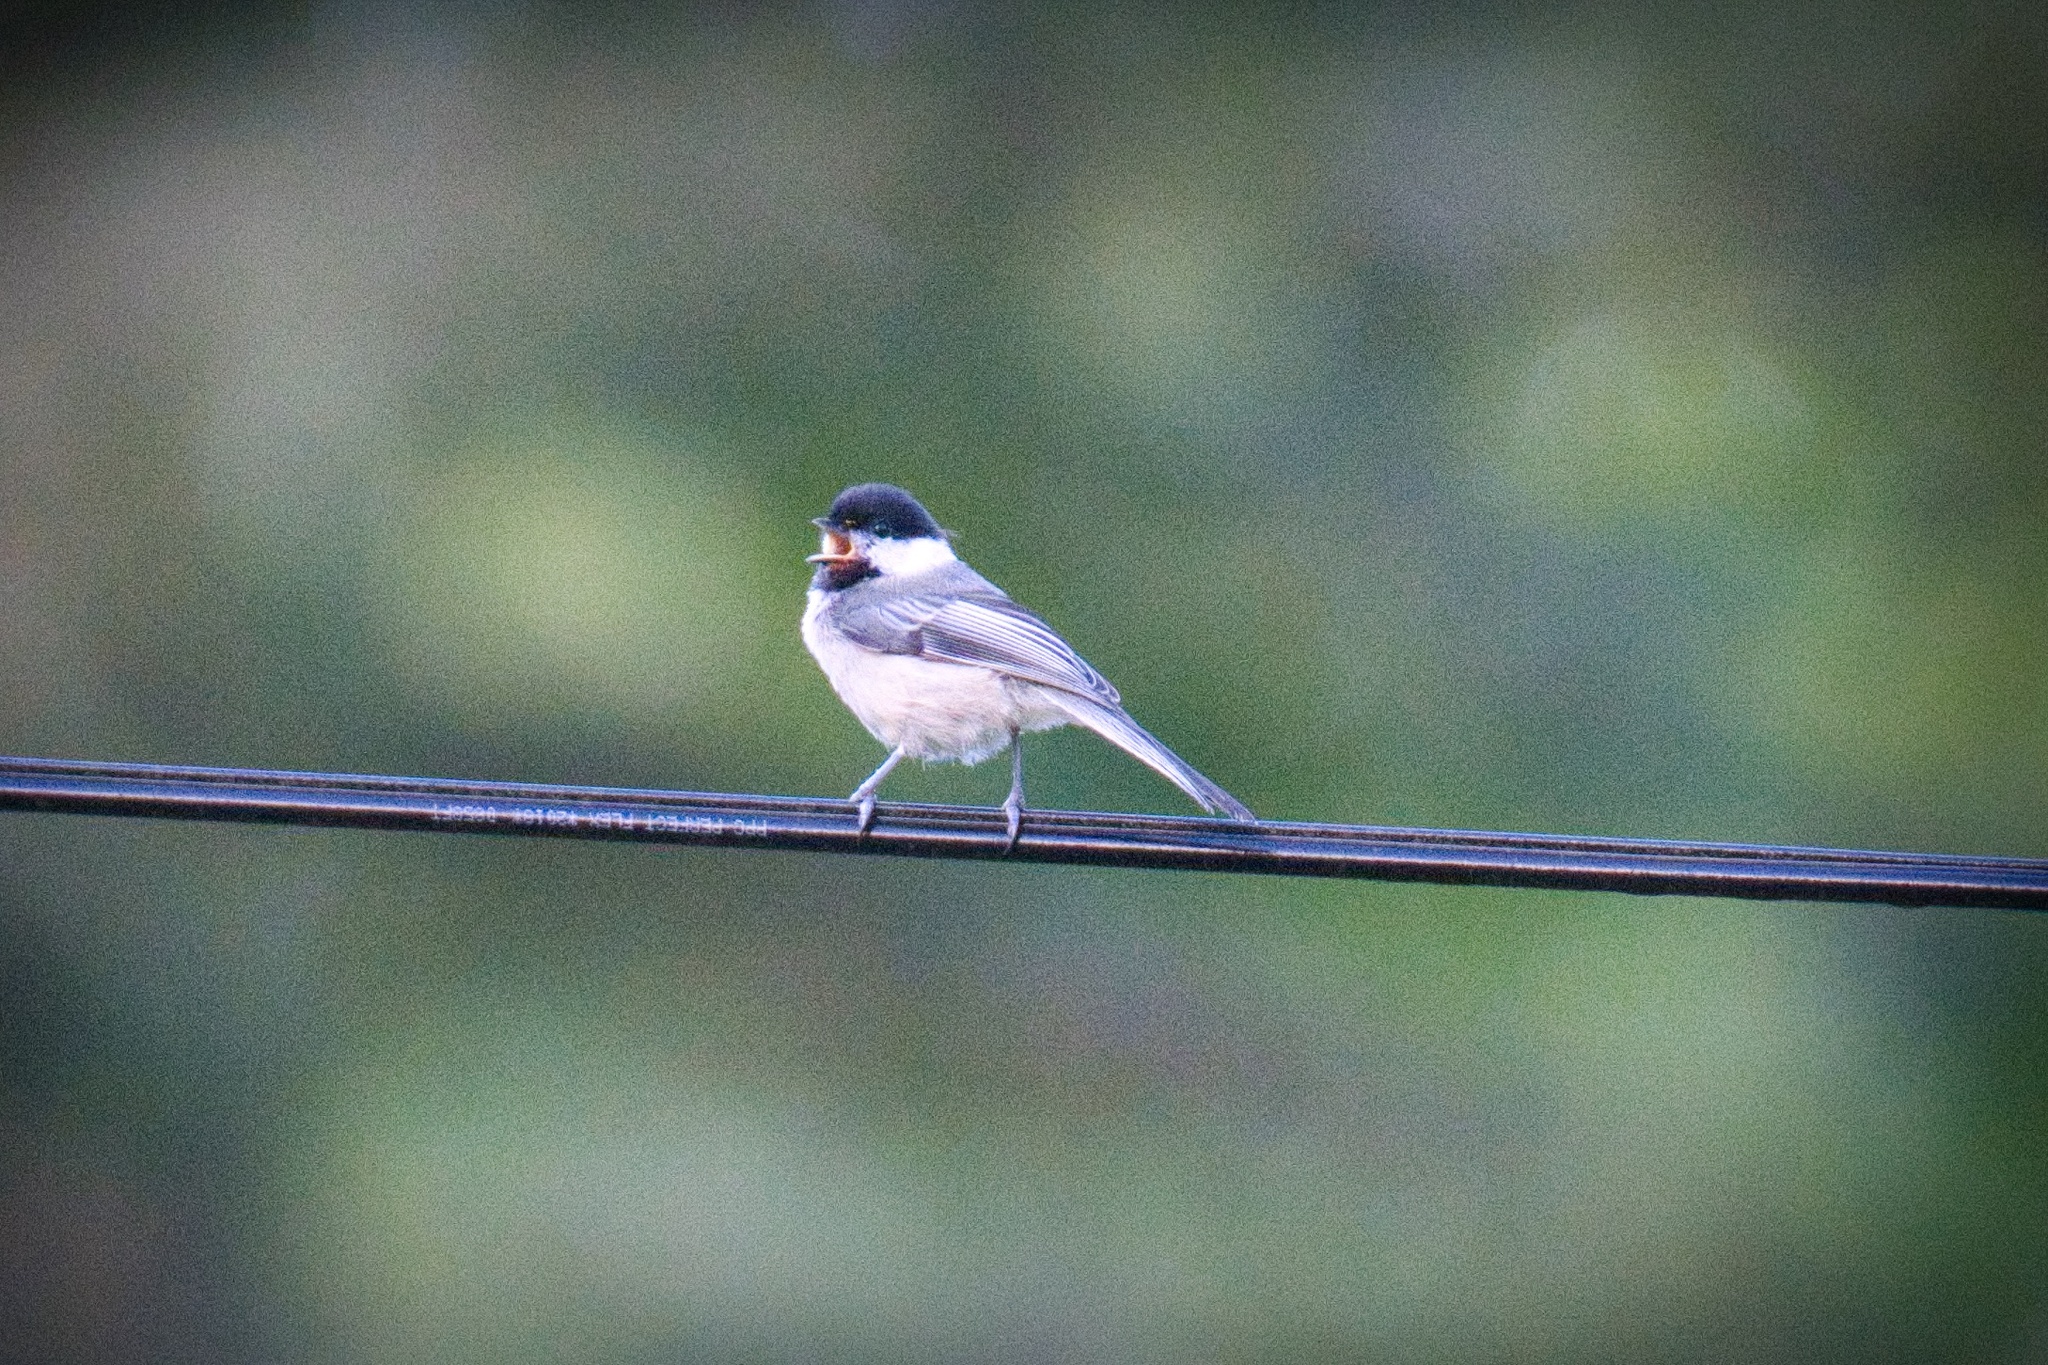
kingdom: Animalia
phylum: Chordata
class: Aves
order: Passeriformes
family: Paridae
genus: Poecile
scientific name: Poecile atricapillus
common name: Black-capped chickadee
